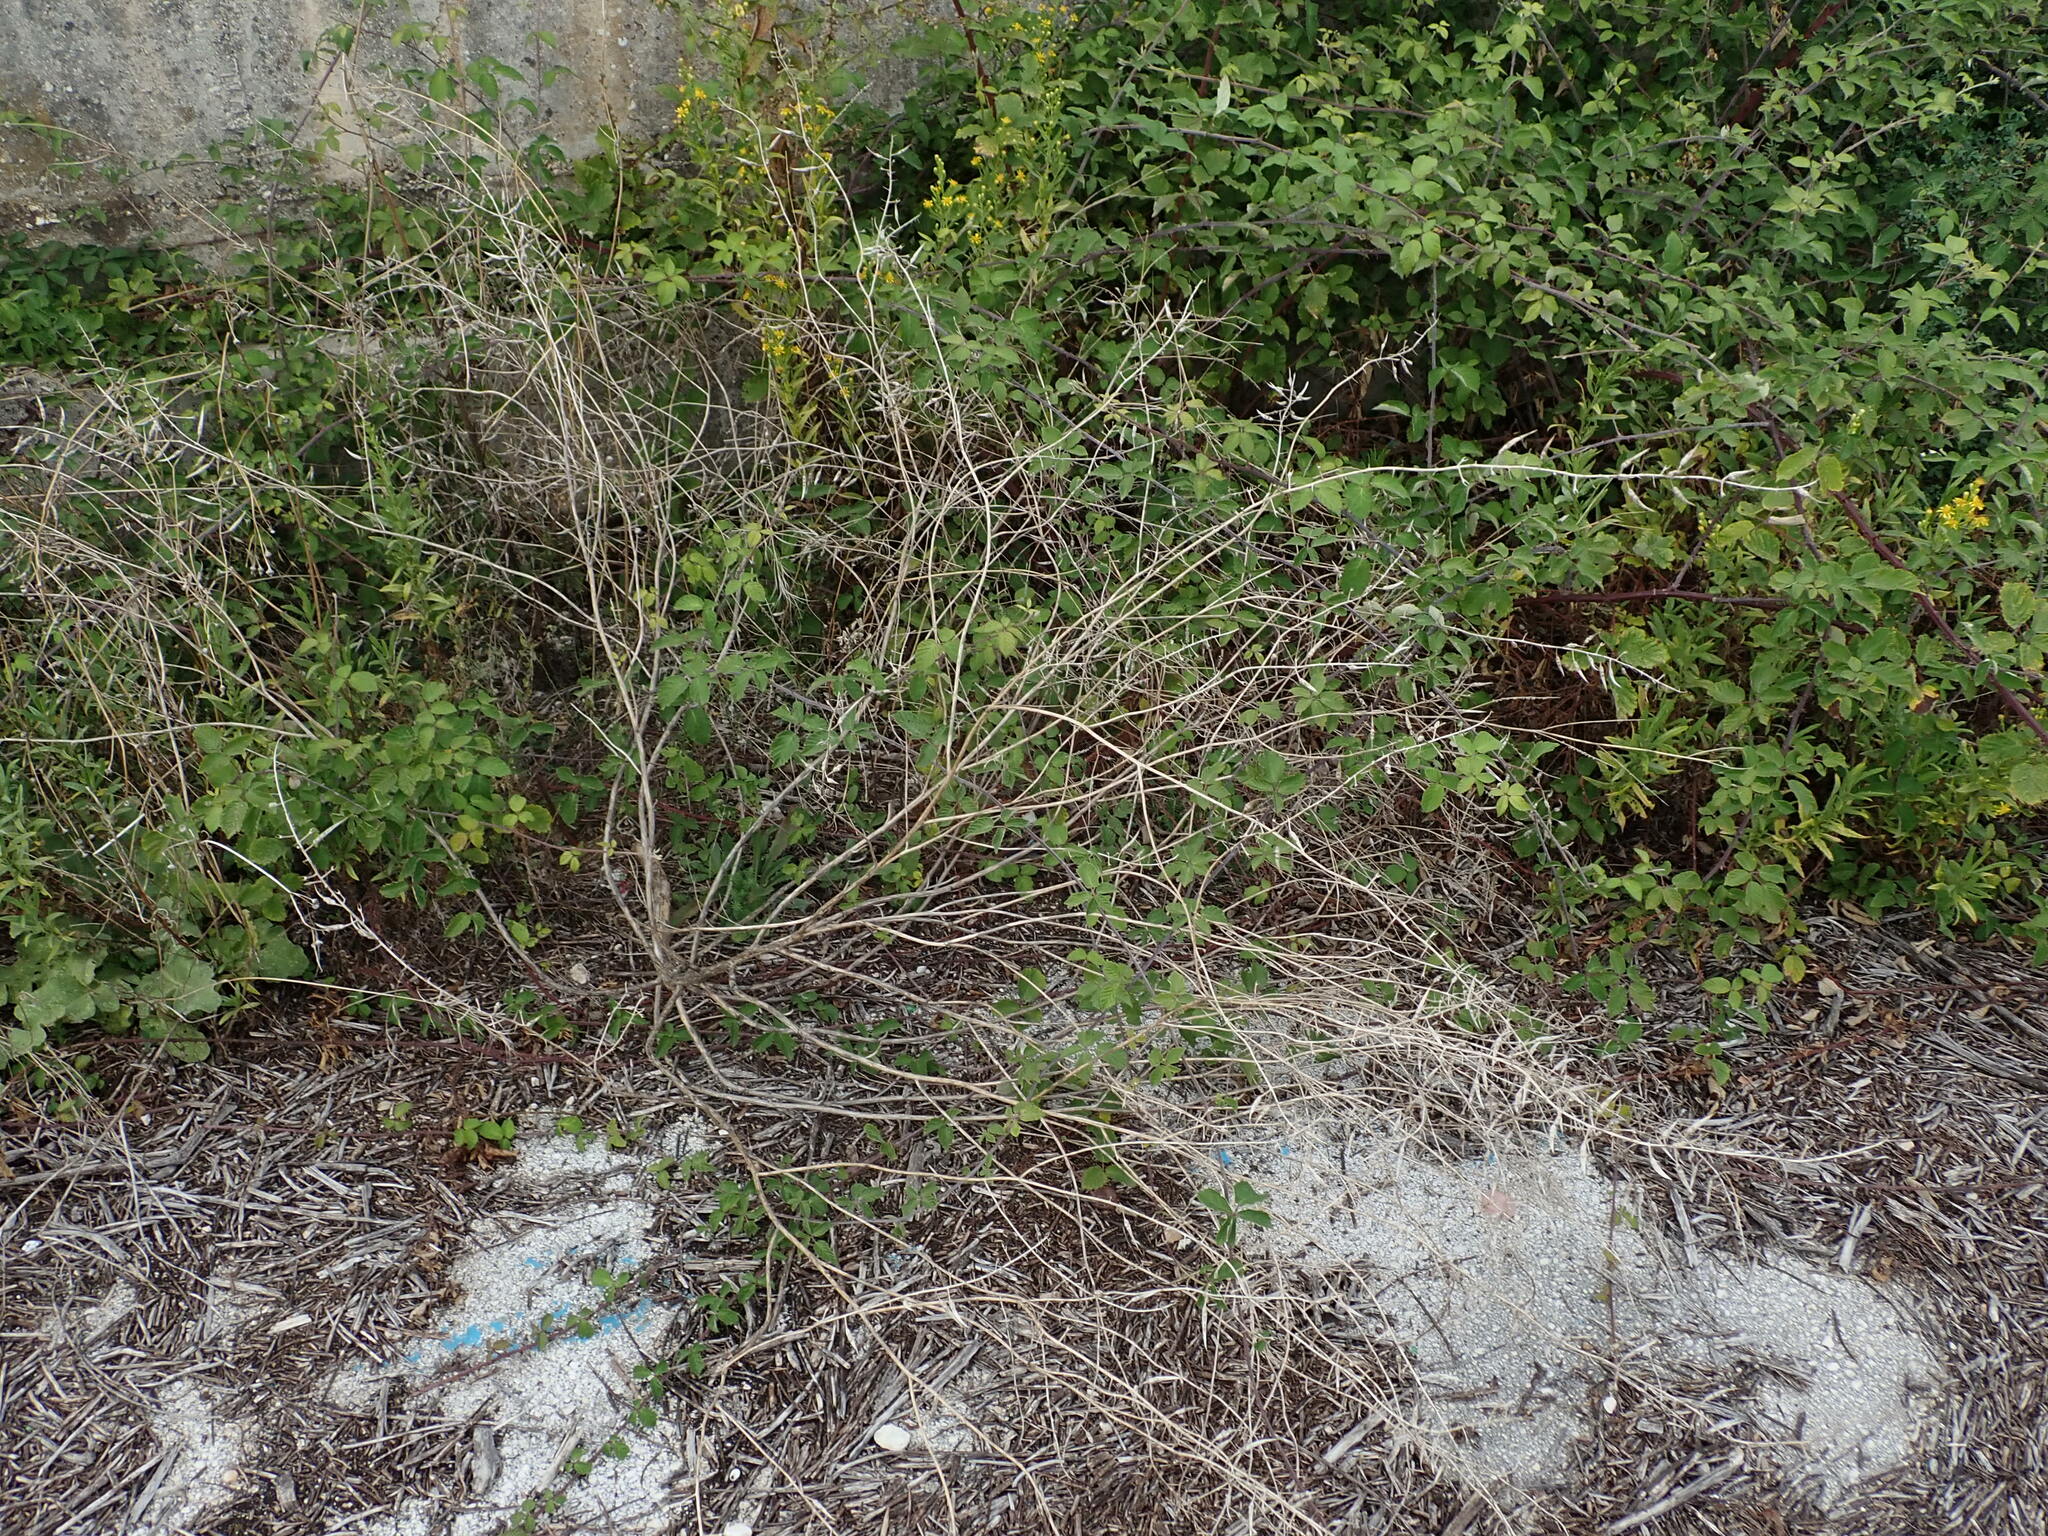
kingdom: Plantae
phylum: Tracheophyta
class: Magnoliopsida
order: Brassicales
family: Brassicaceae
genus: Sinapis
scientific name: Sinapis alba
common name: White mustard
